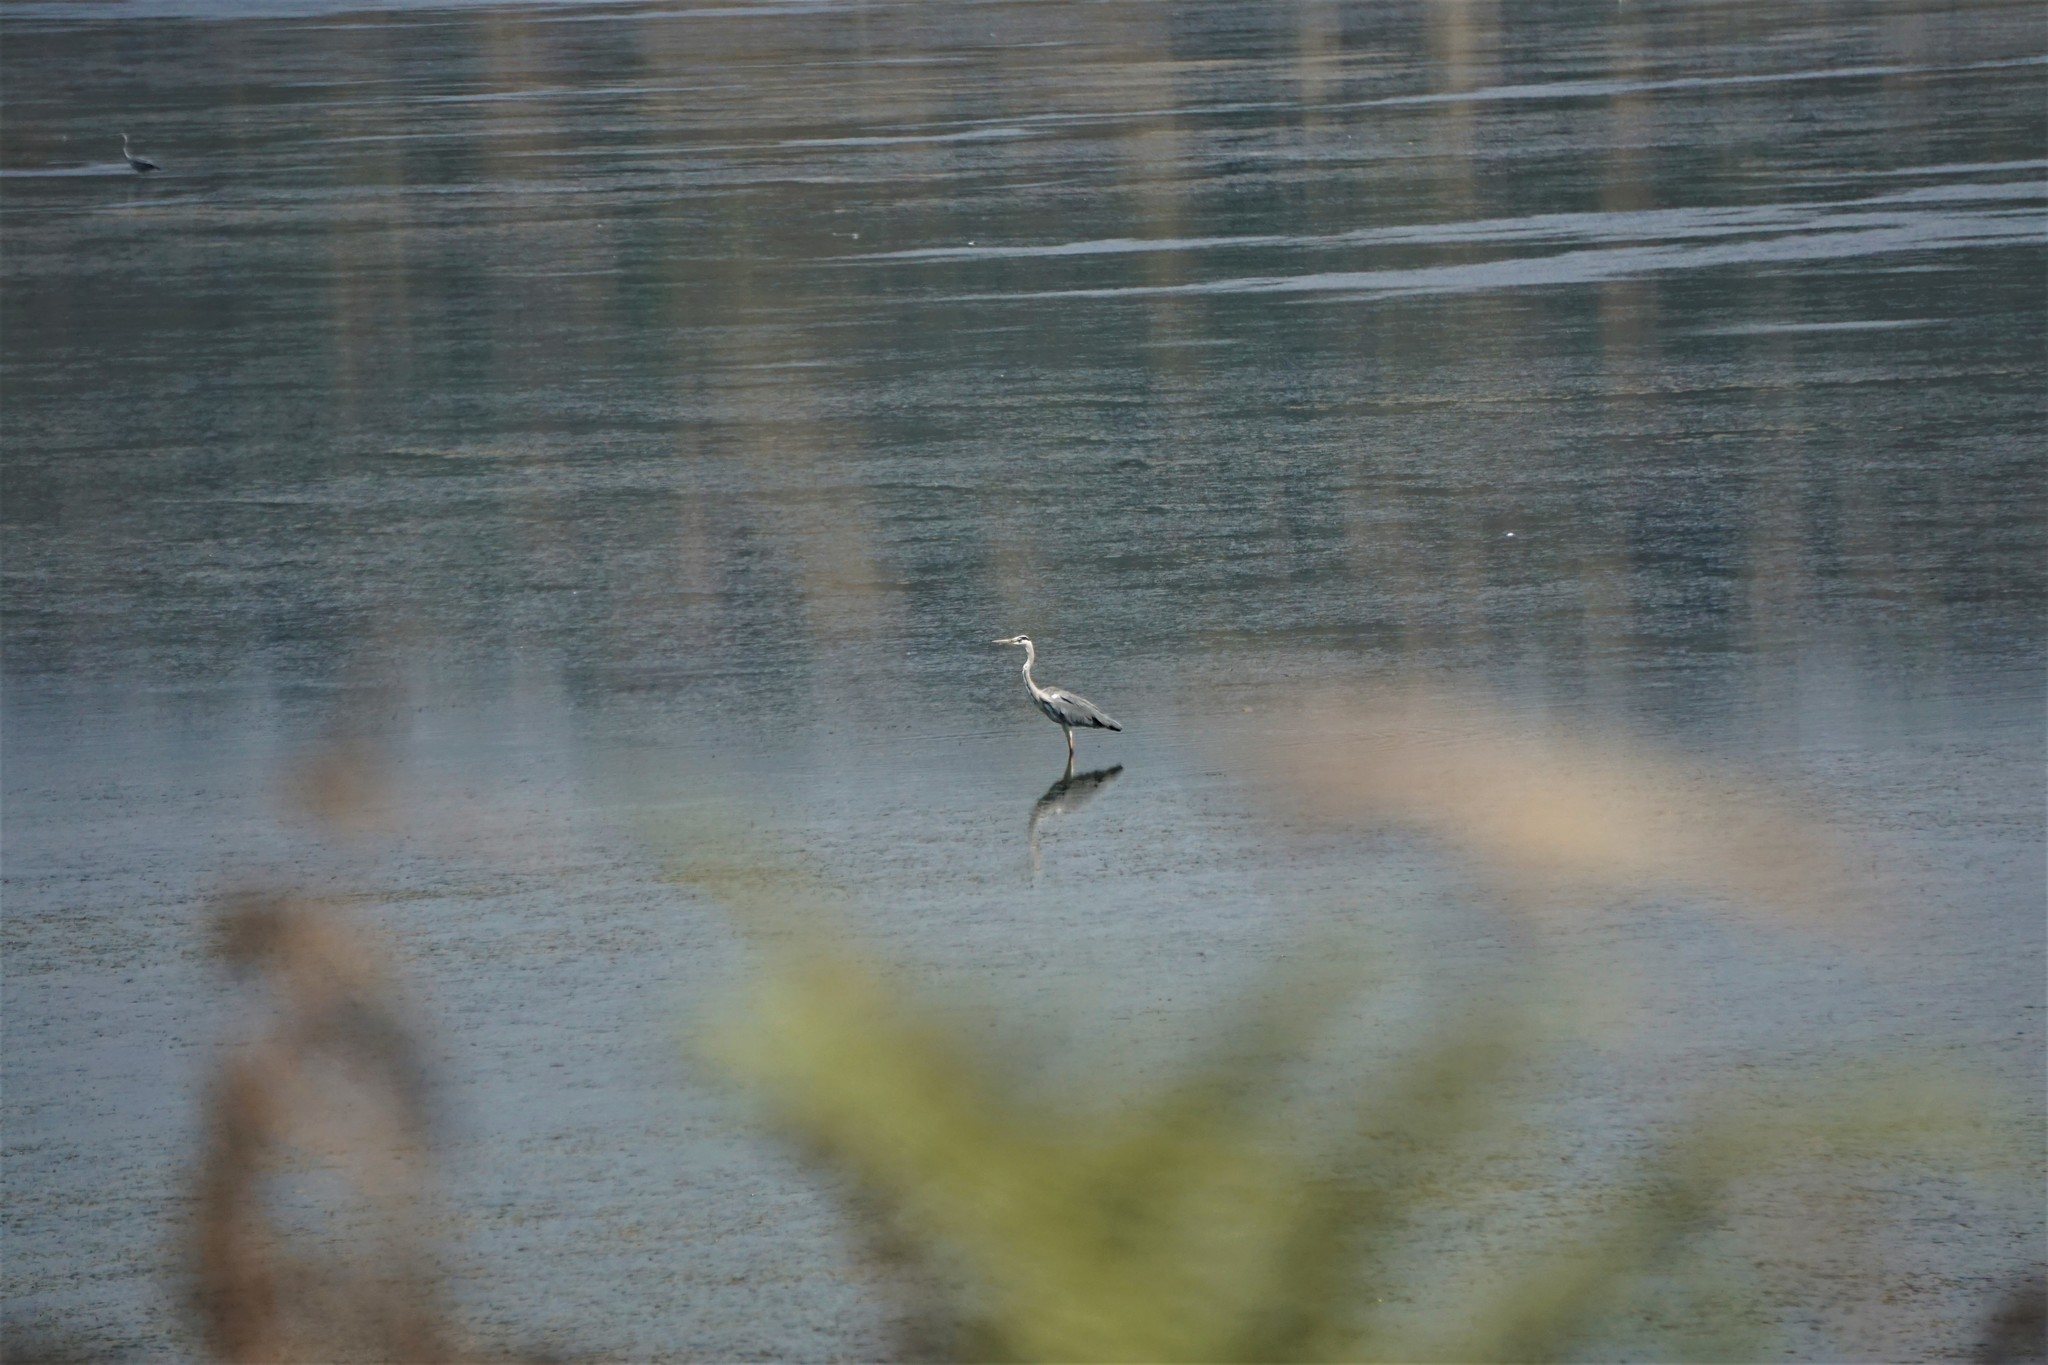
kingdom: Animalia
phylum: Chordata
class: Aves
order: Pelecaniformes
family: Ardeidae
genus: Ardea
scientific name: Ardea cinerea
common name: Grey heron
